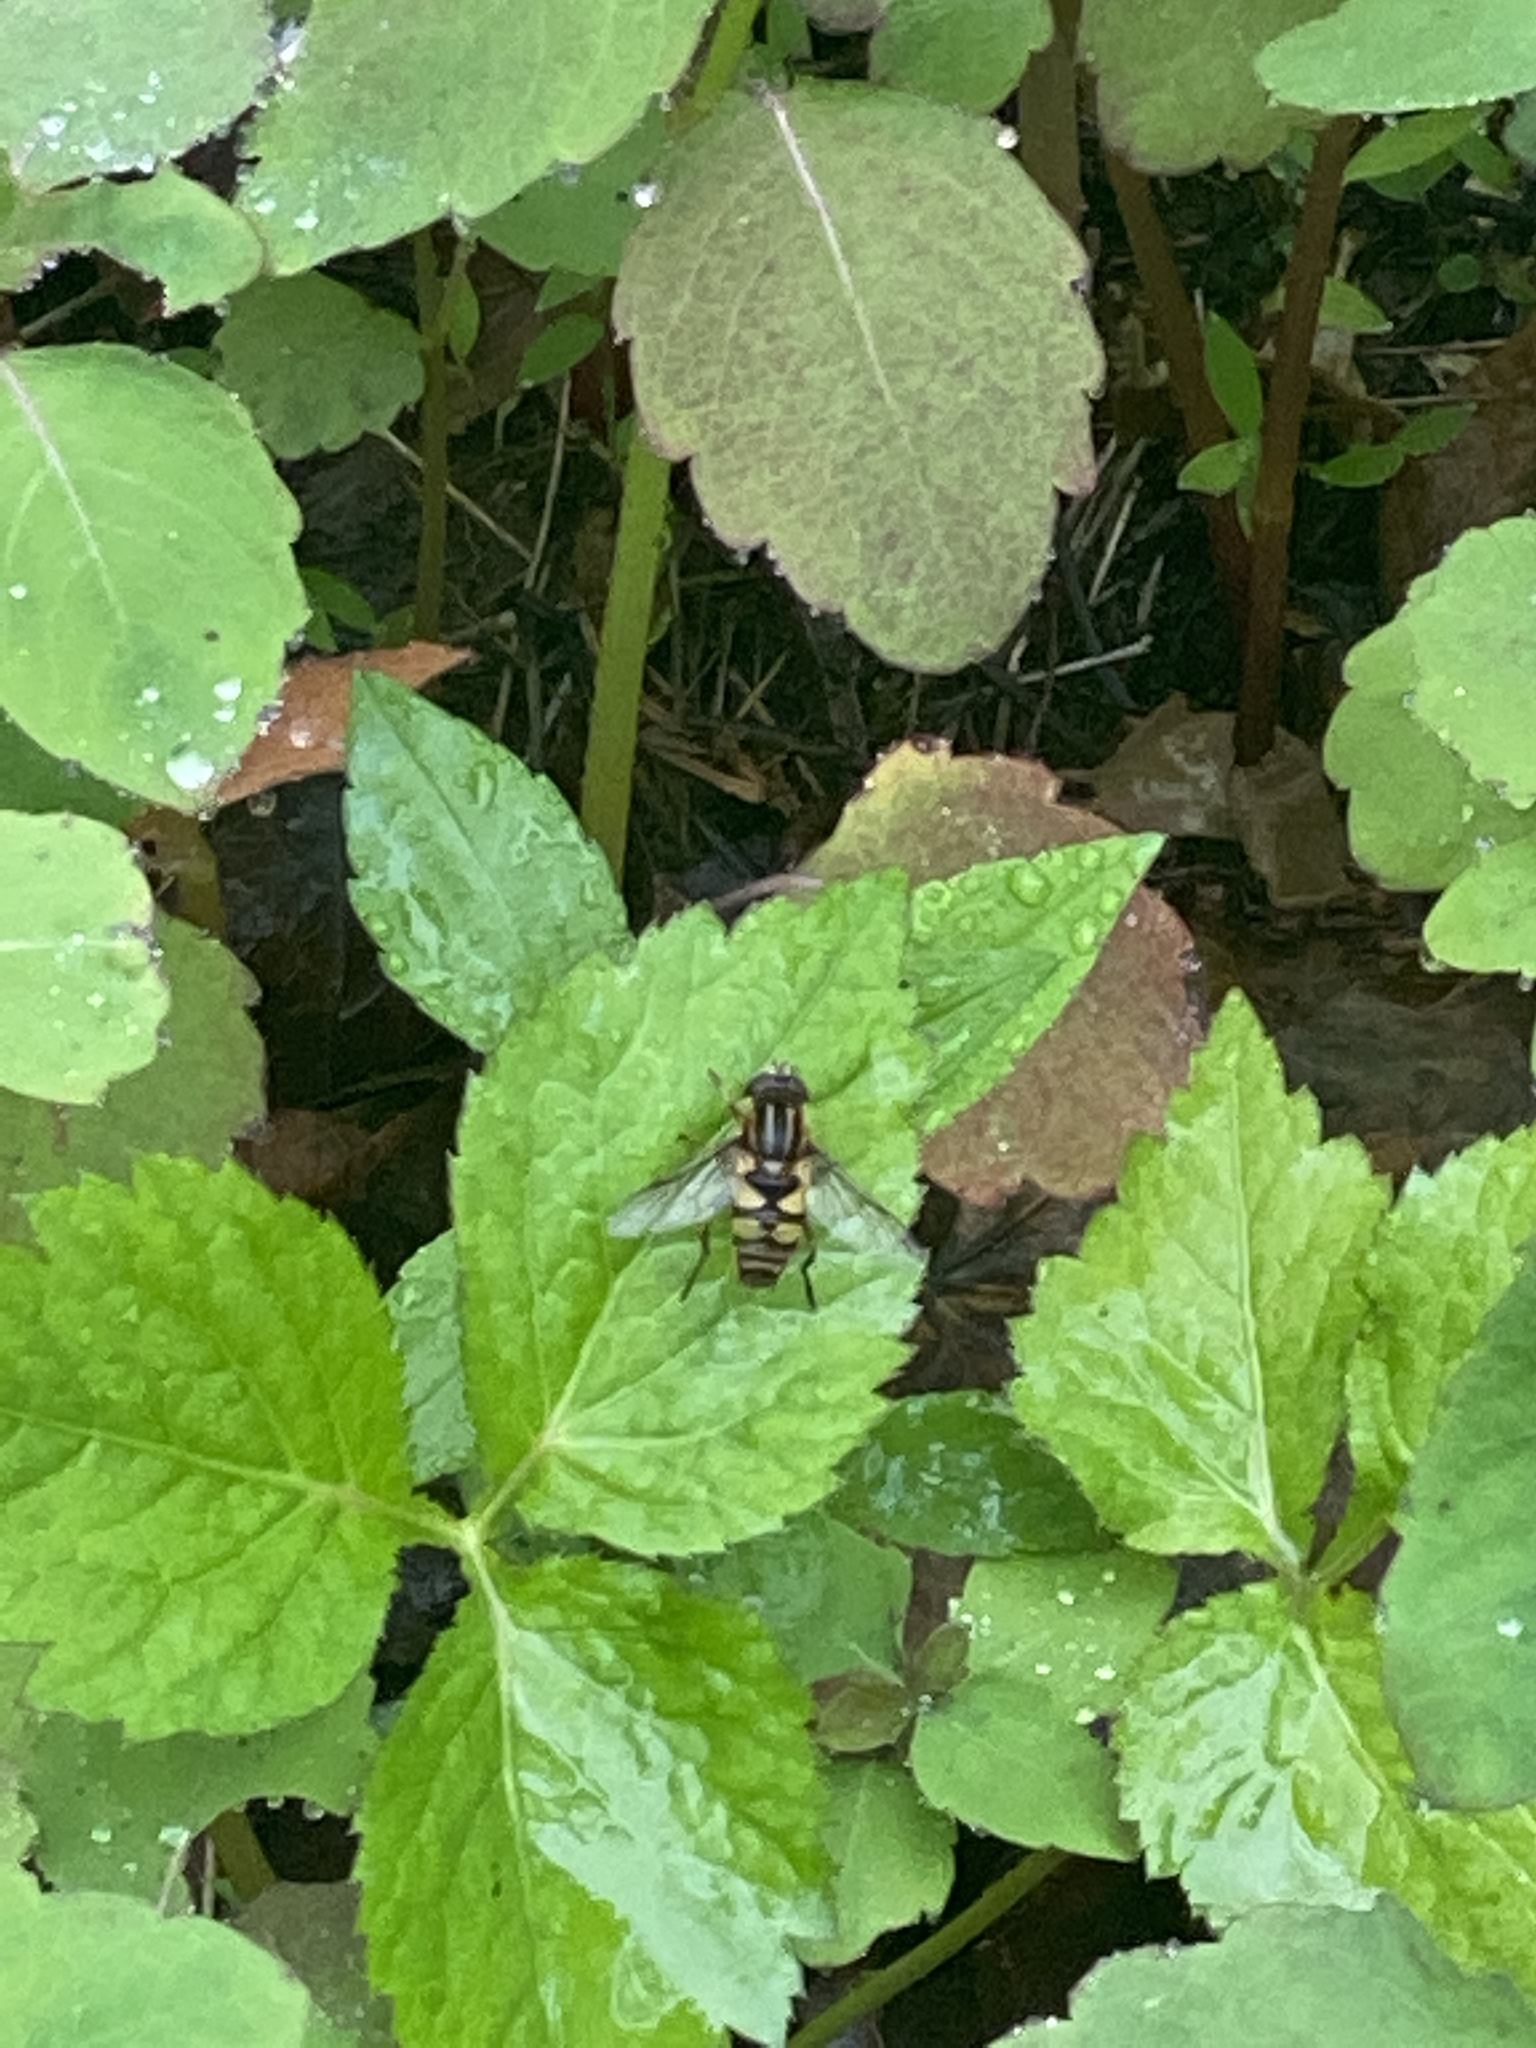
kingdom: Animalia
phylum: Arthropoda
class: Insecta
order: Diptera
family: Syrphidae
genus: Helophilus
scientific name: Helophilus fasciatus
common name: Narrow-headed marsh fly
